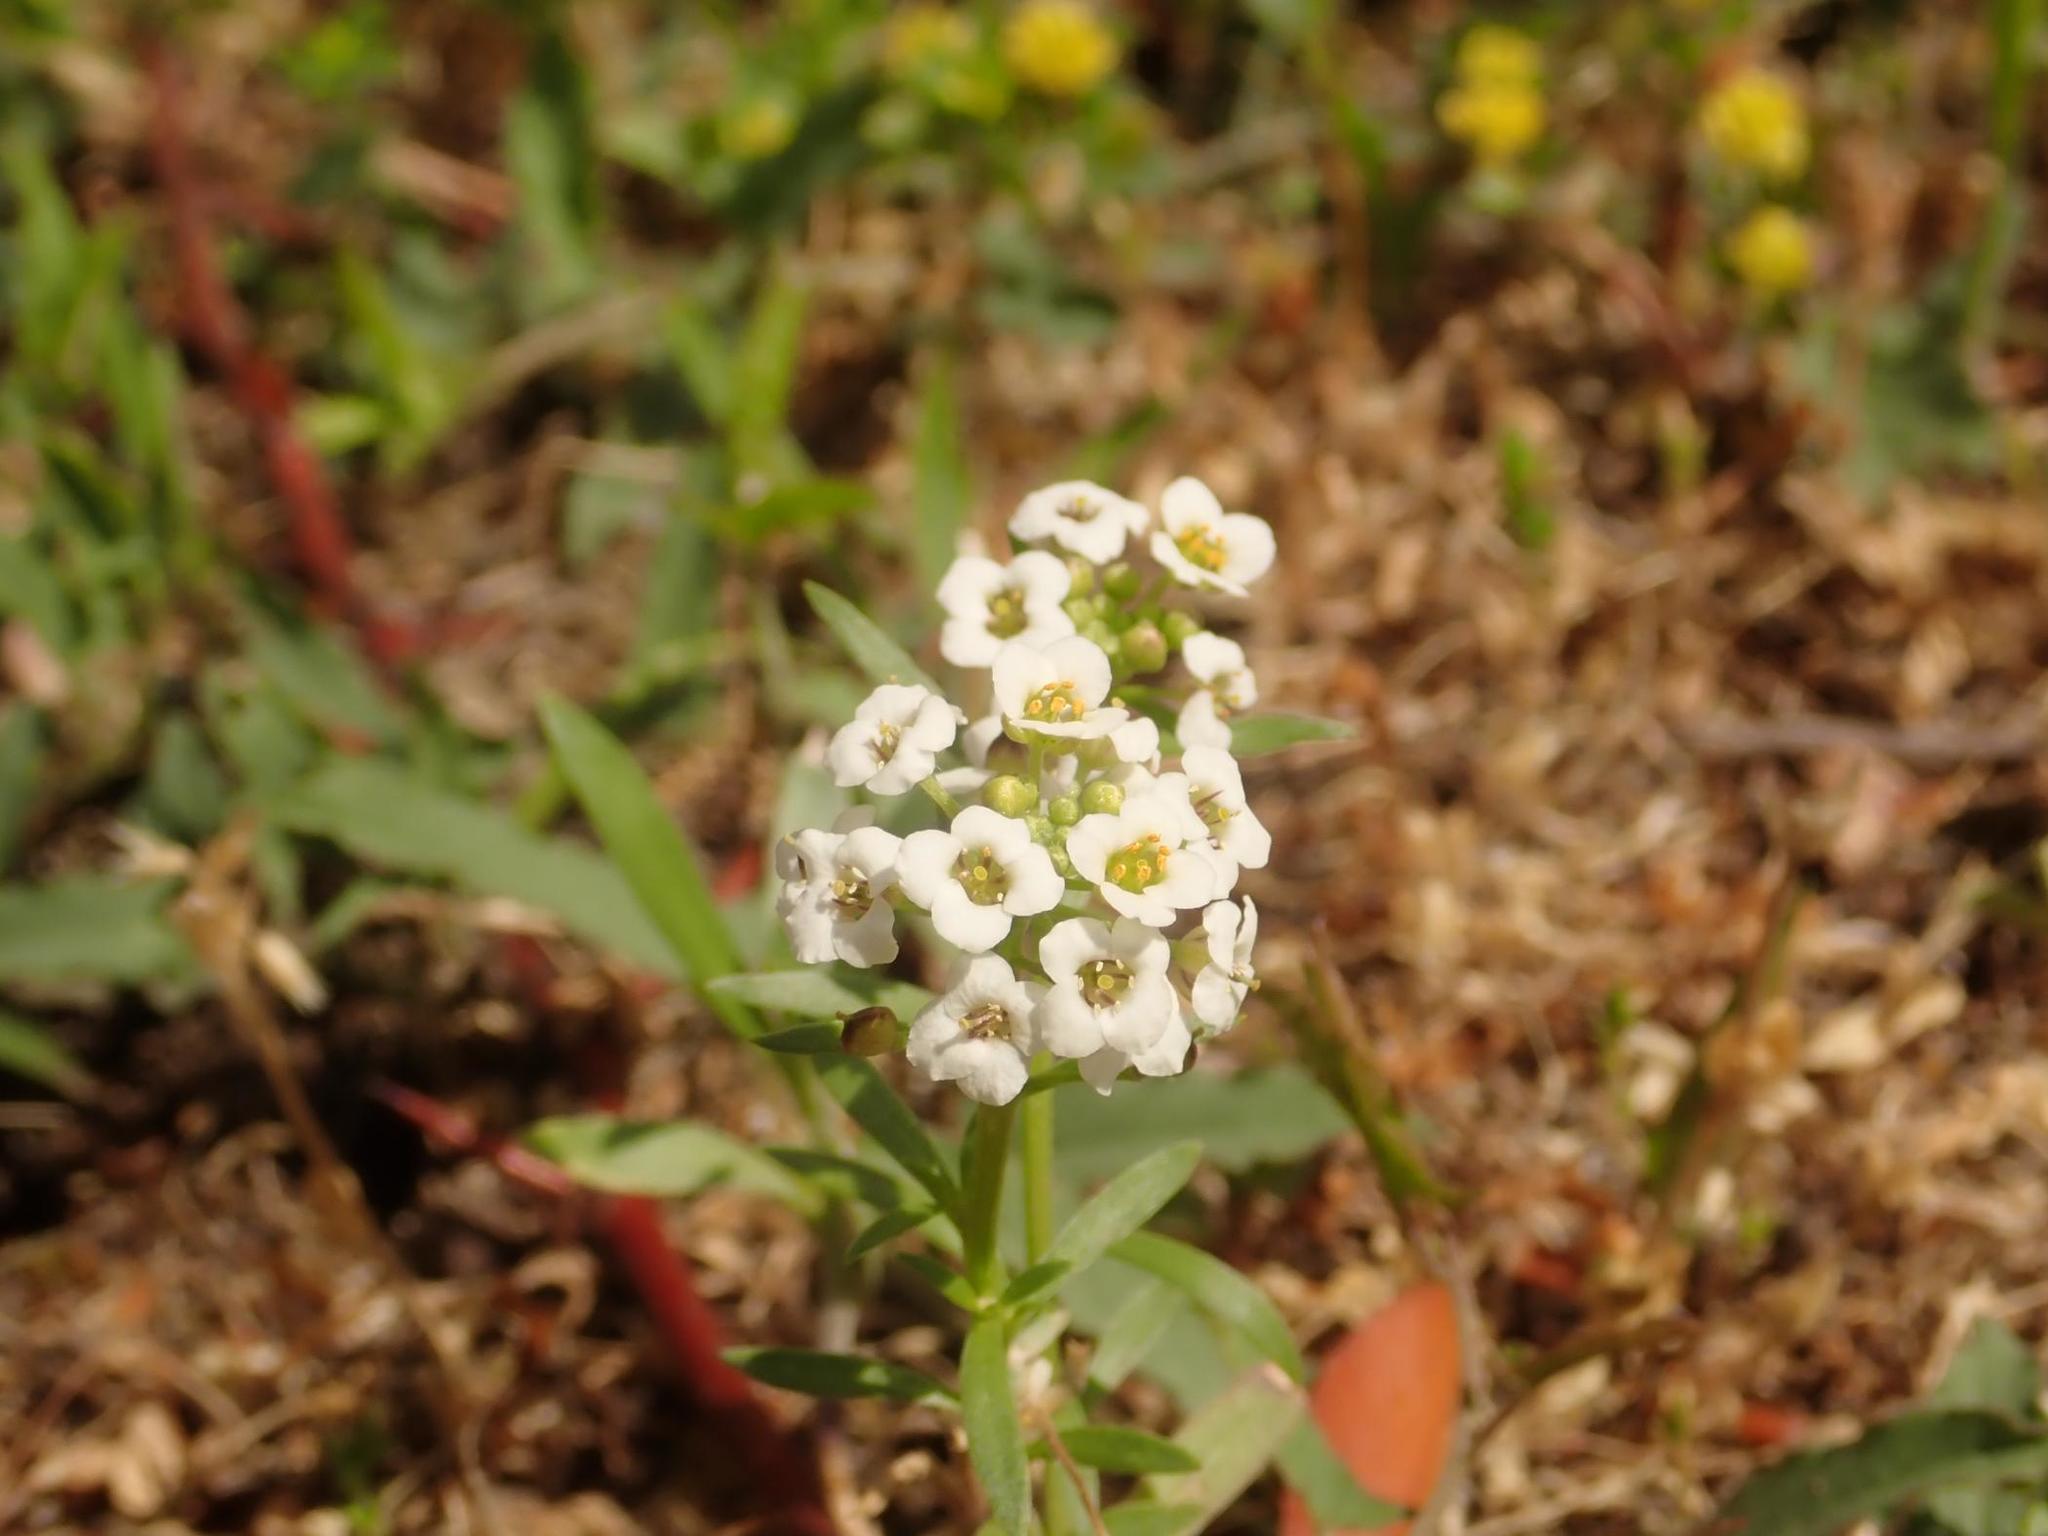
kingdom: Plantae
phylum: Tracheophyta
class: Magnoliopsida
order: Brassicales
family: Brassicaceae
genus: Lobularia
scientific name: Lobularia maritima
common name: Sweet alison
